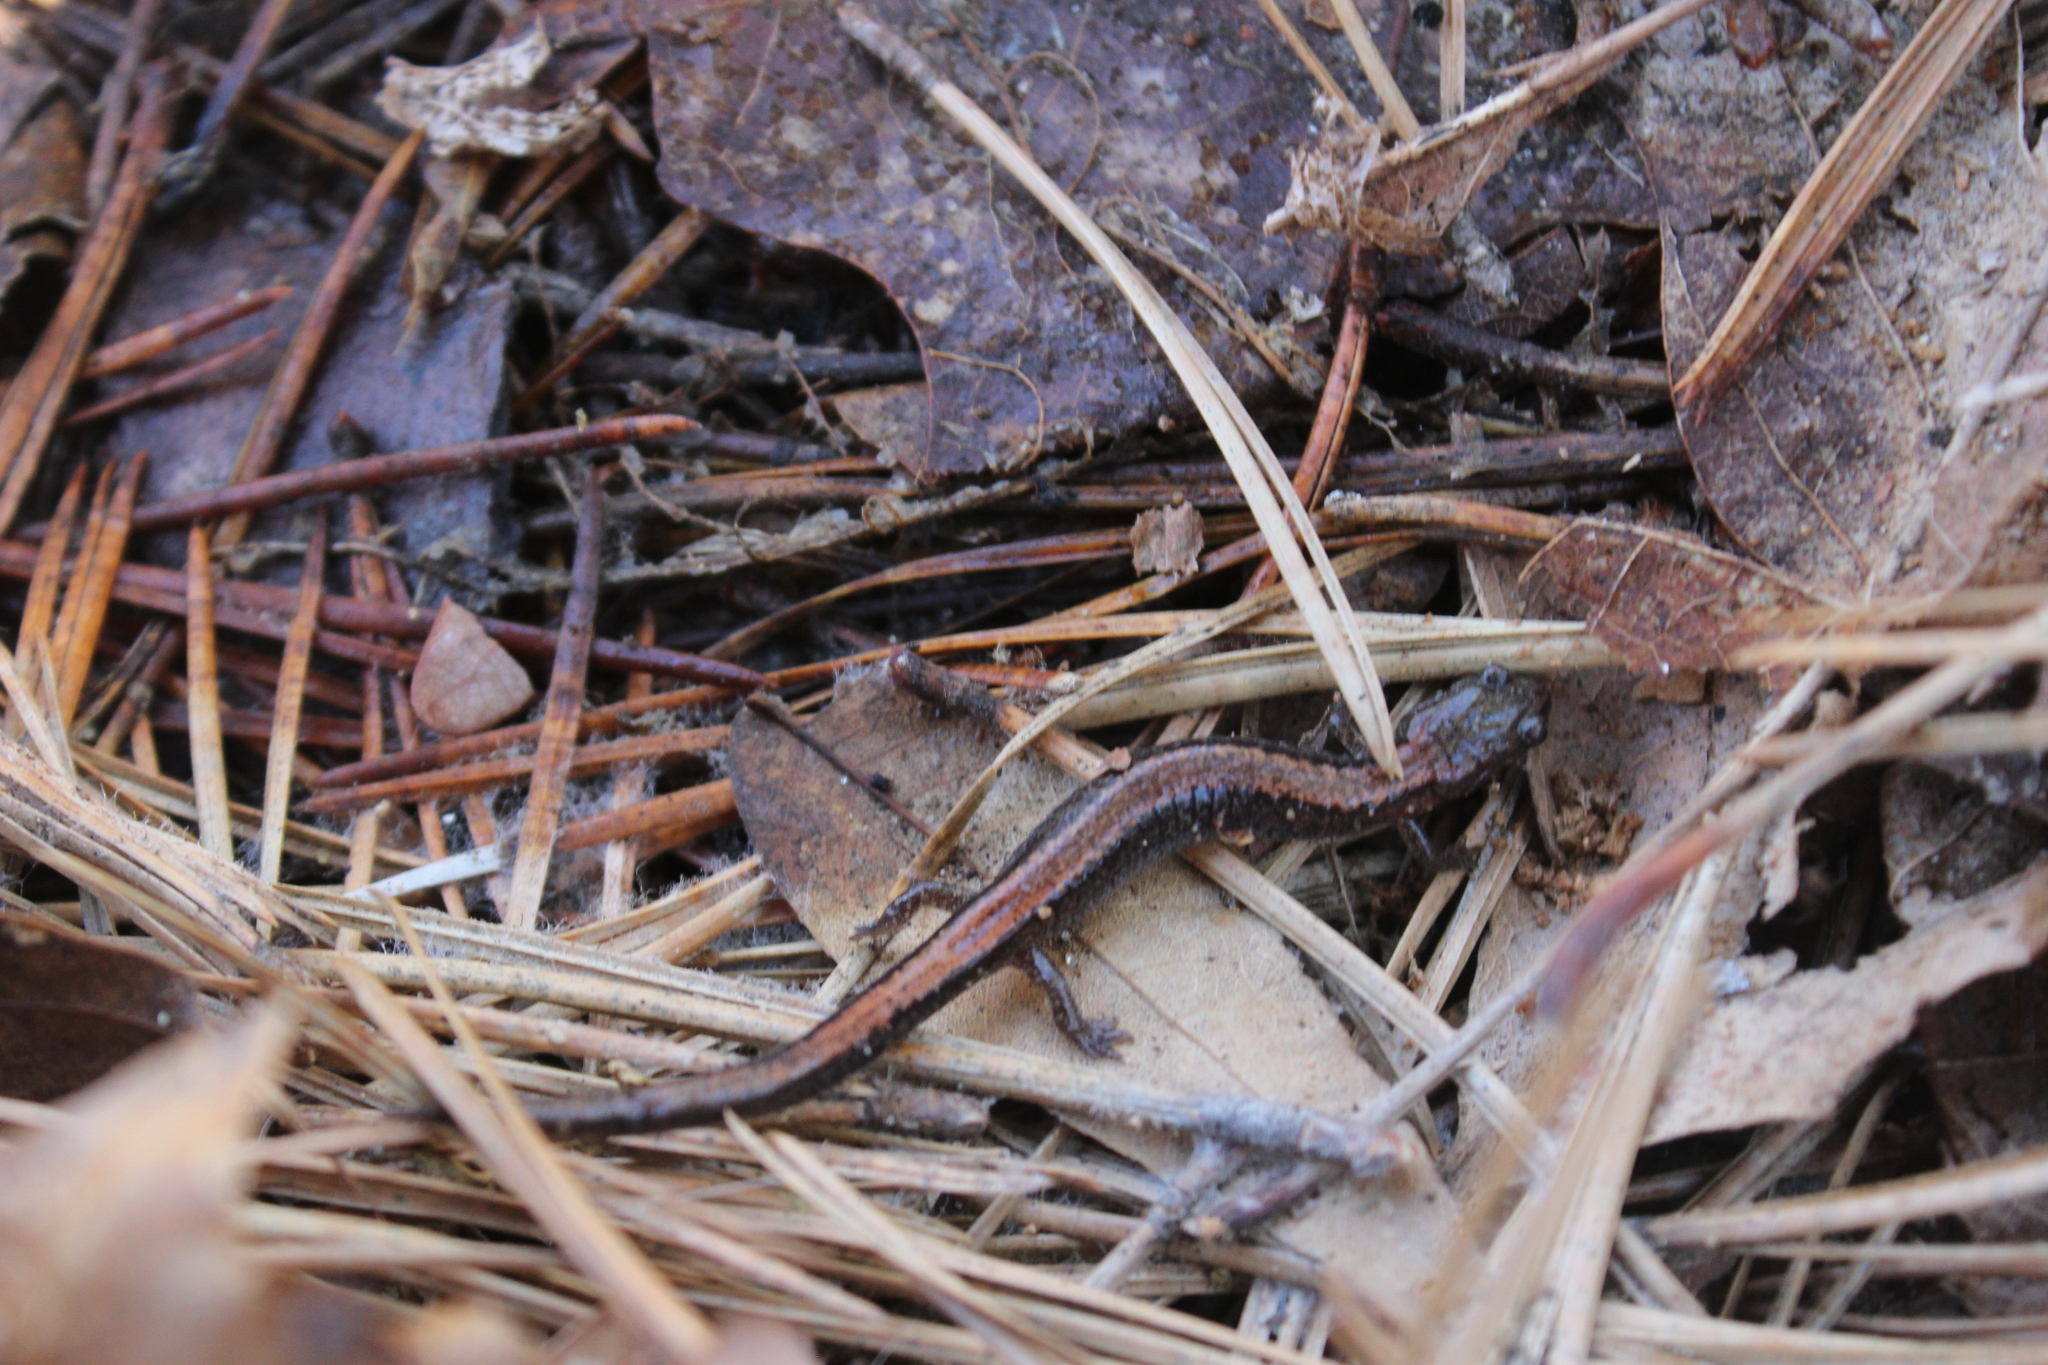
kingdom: Animalia
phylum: Chordata
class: Amphibia
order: Caudata
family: Plethodontidae
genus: Plethodon
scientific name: Plethodon cinereus
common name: Redback salamander
